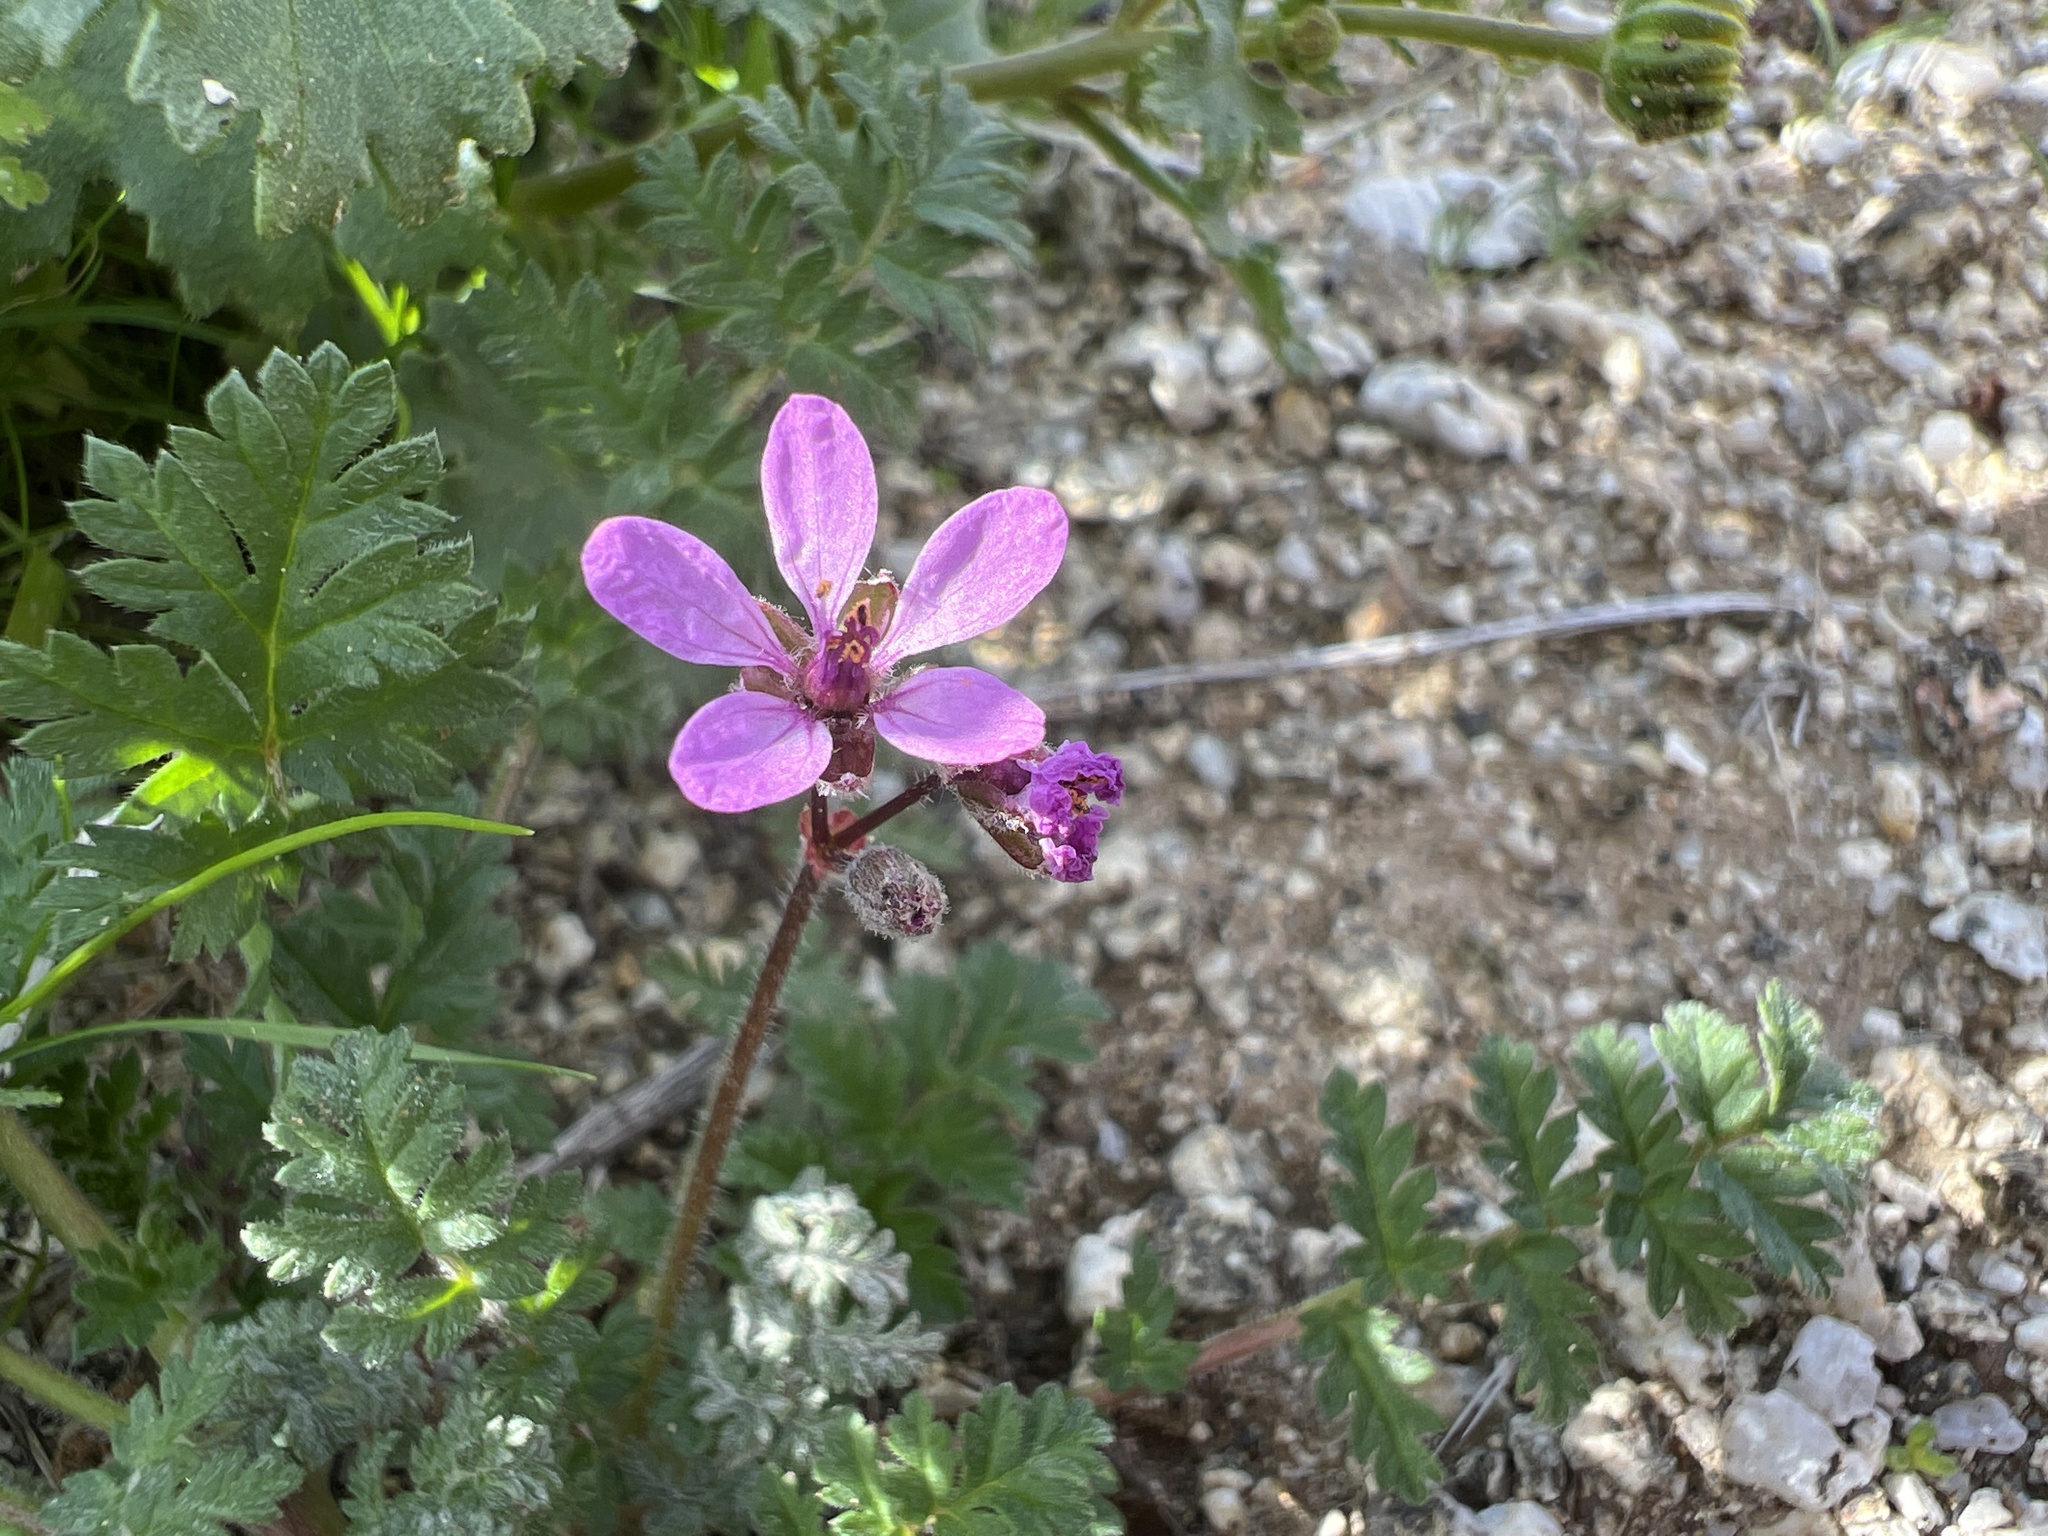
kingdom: Plantae
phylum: Tracheophyta
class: Magnoliopsida
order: Geraniales
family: Geraniaceae
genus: Erodium
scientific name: Erodium cicutarium
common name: Common stork's-bill
